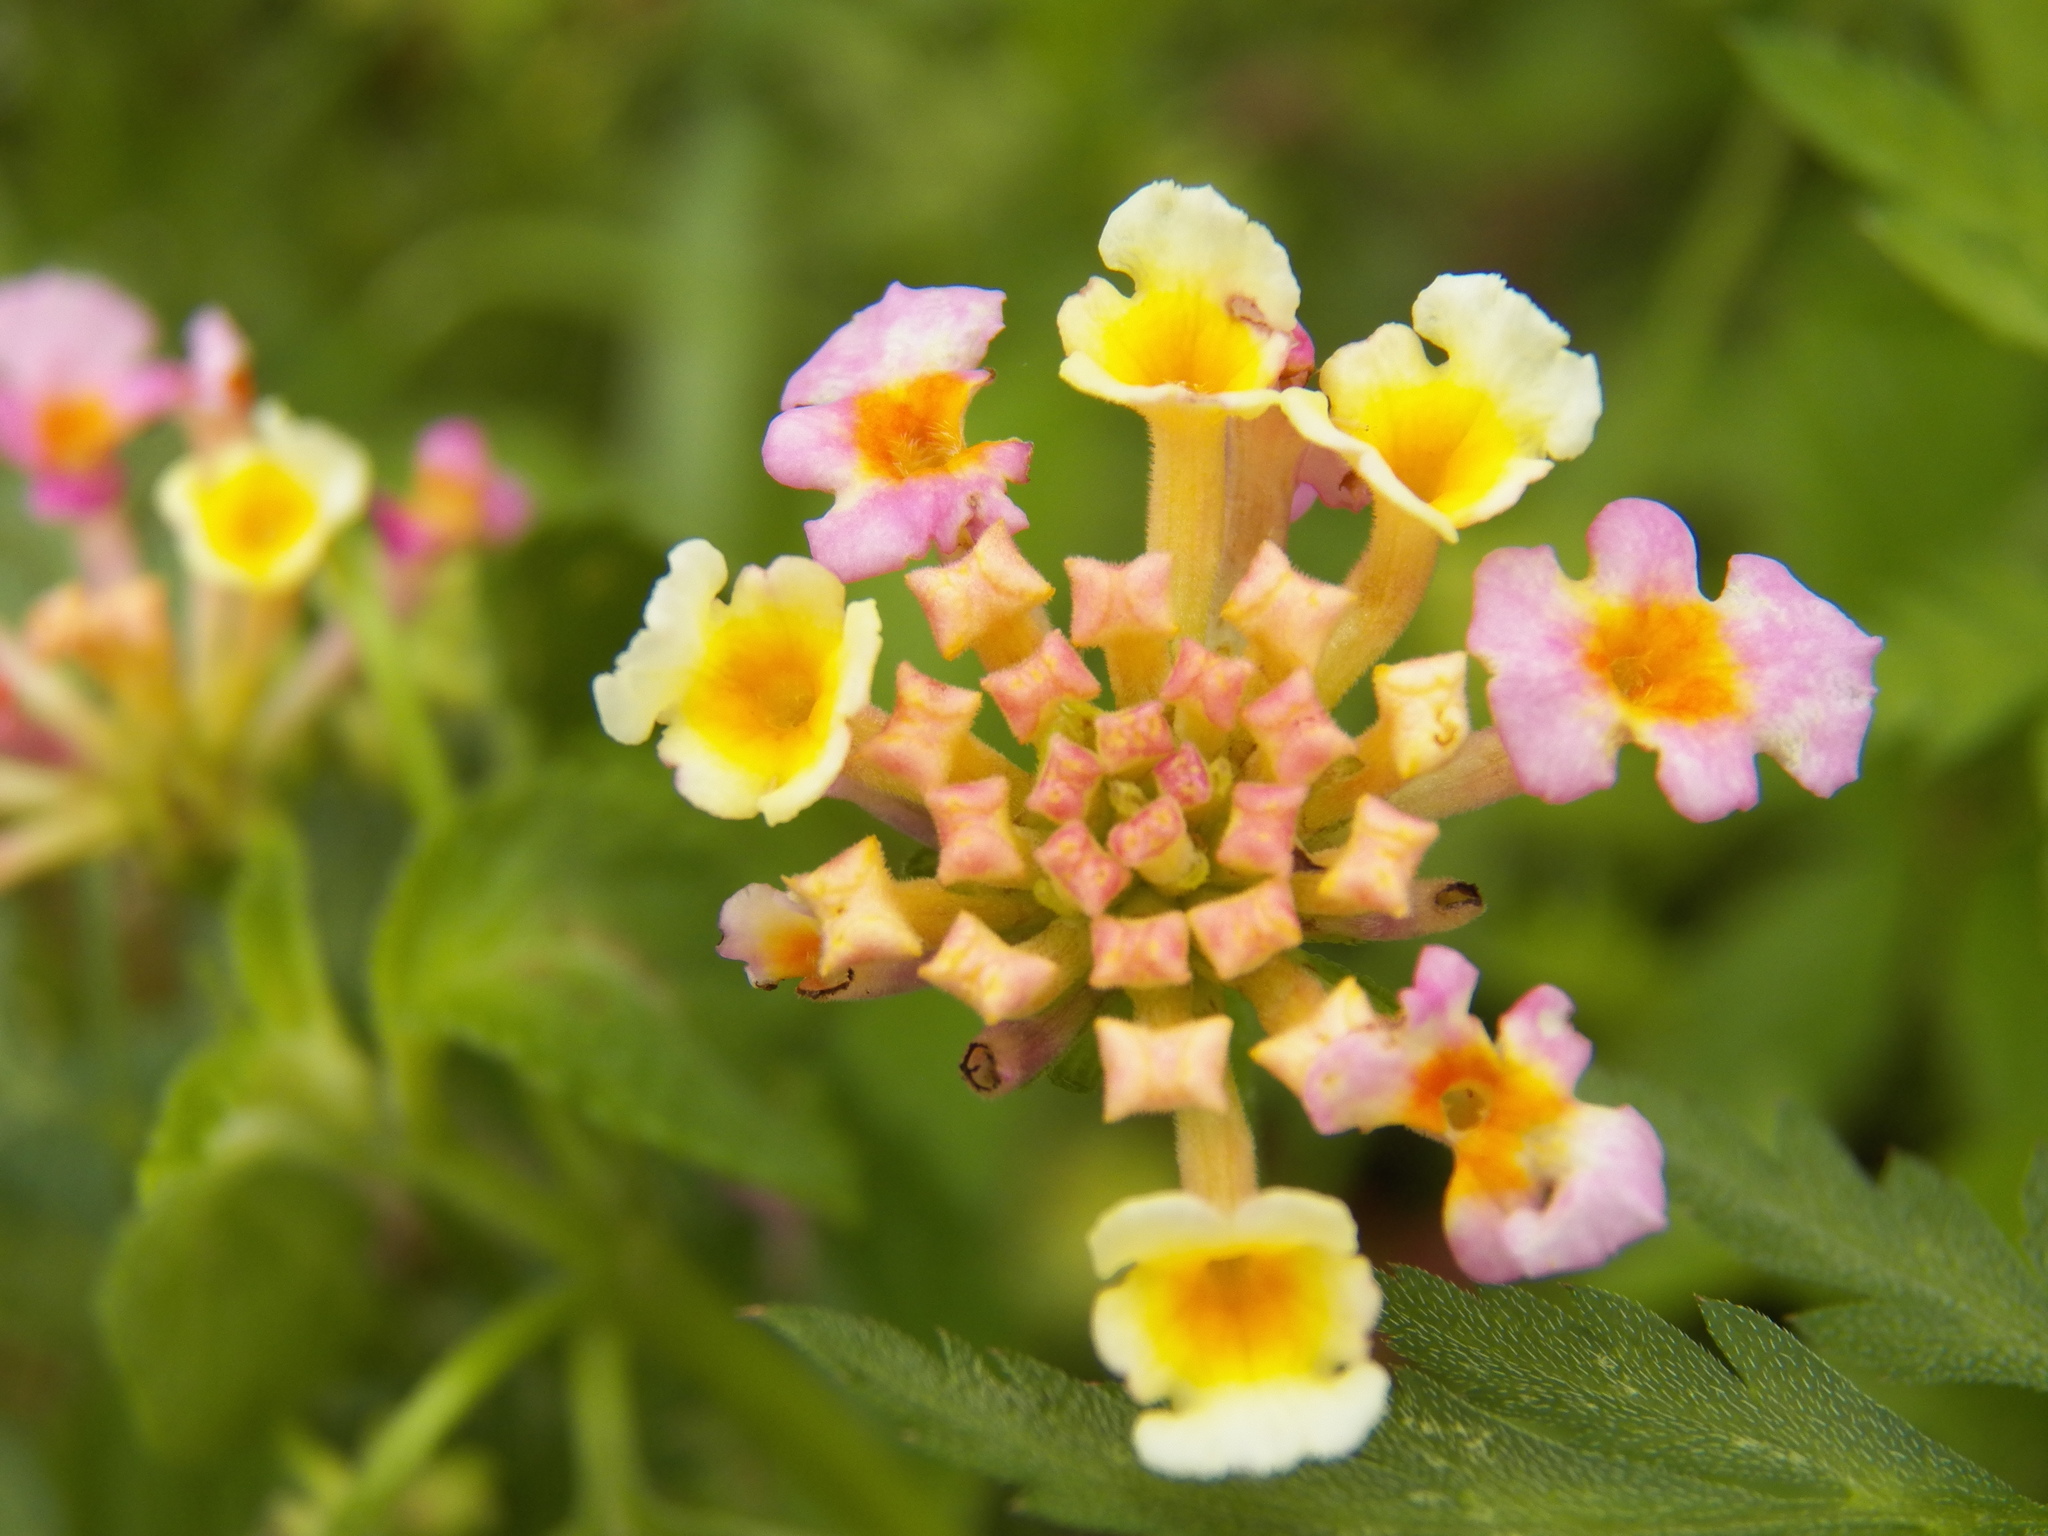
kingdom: Plantae
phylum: Tracheophyta
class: Magnoliopsida
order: Lamiales
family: Verbenaceae
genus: Lantana
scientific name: Lantana strigocamara
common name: Lantana
